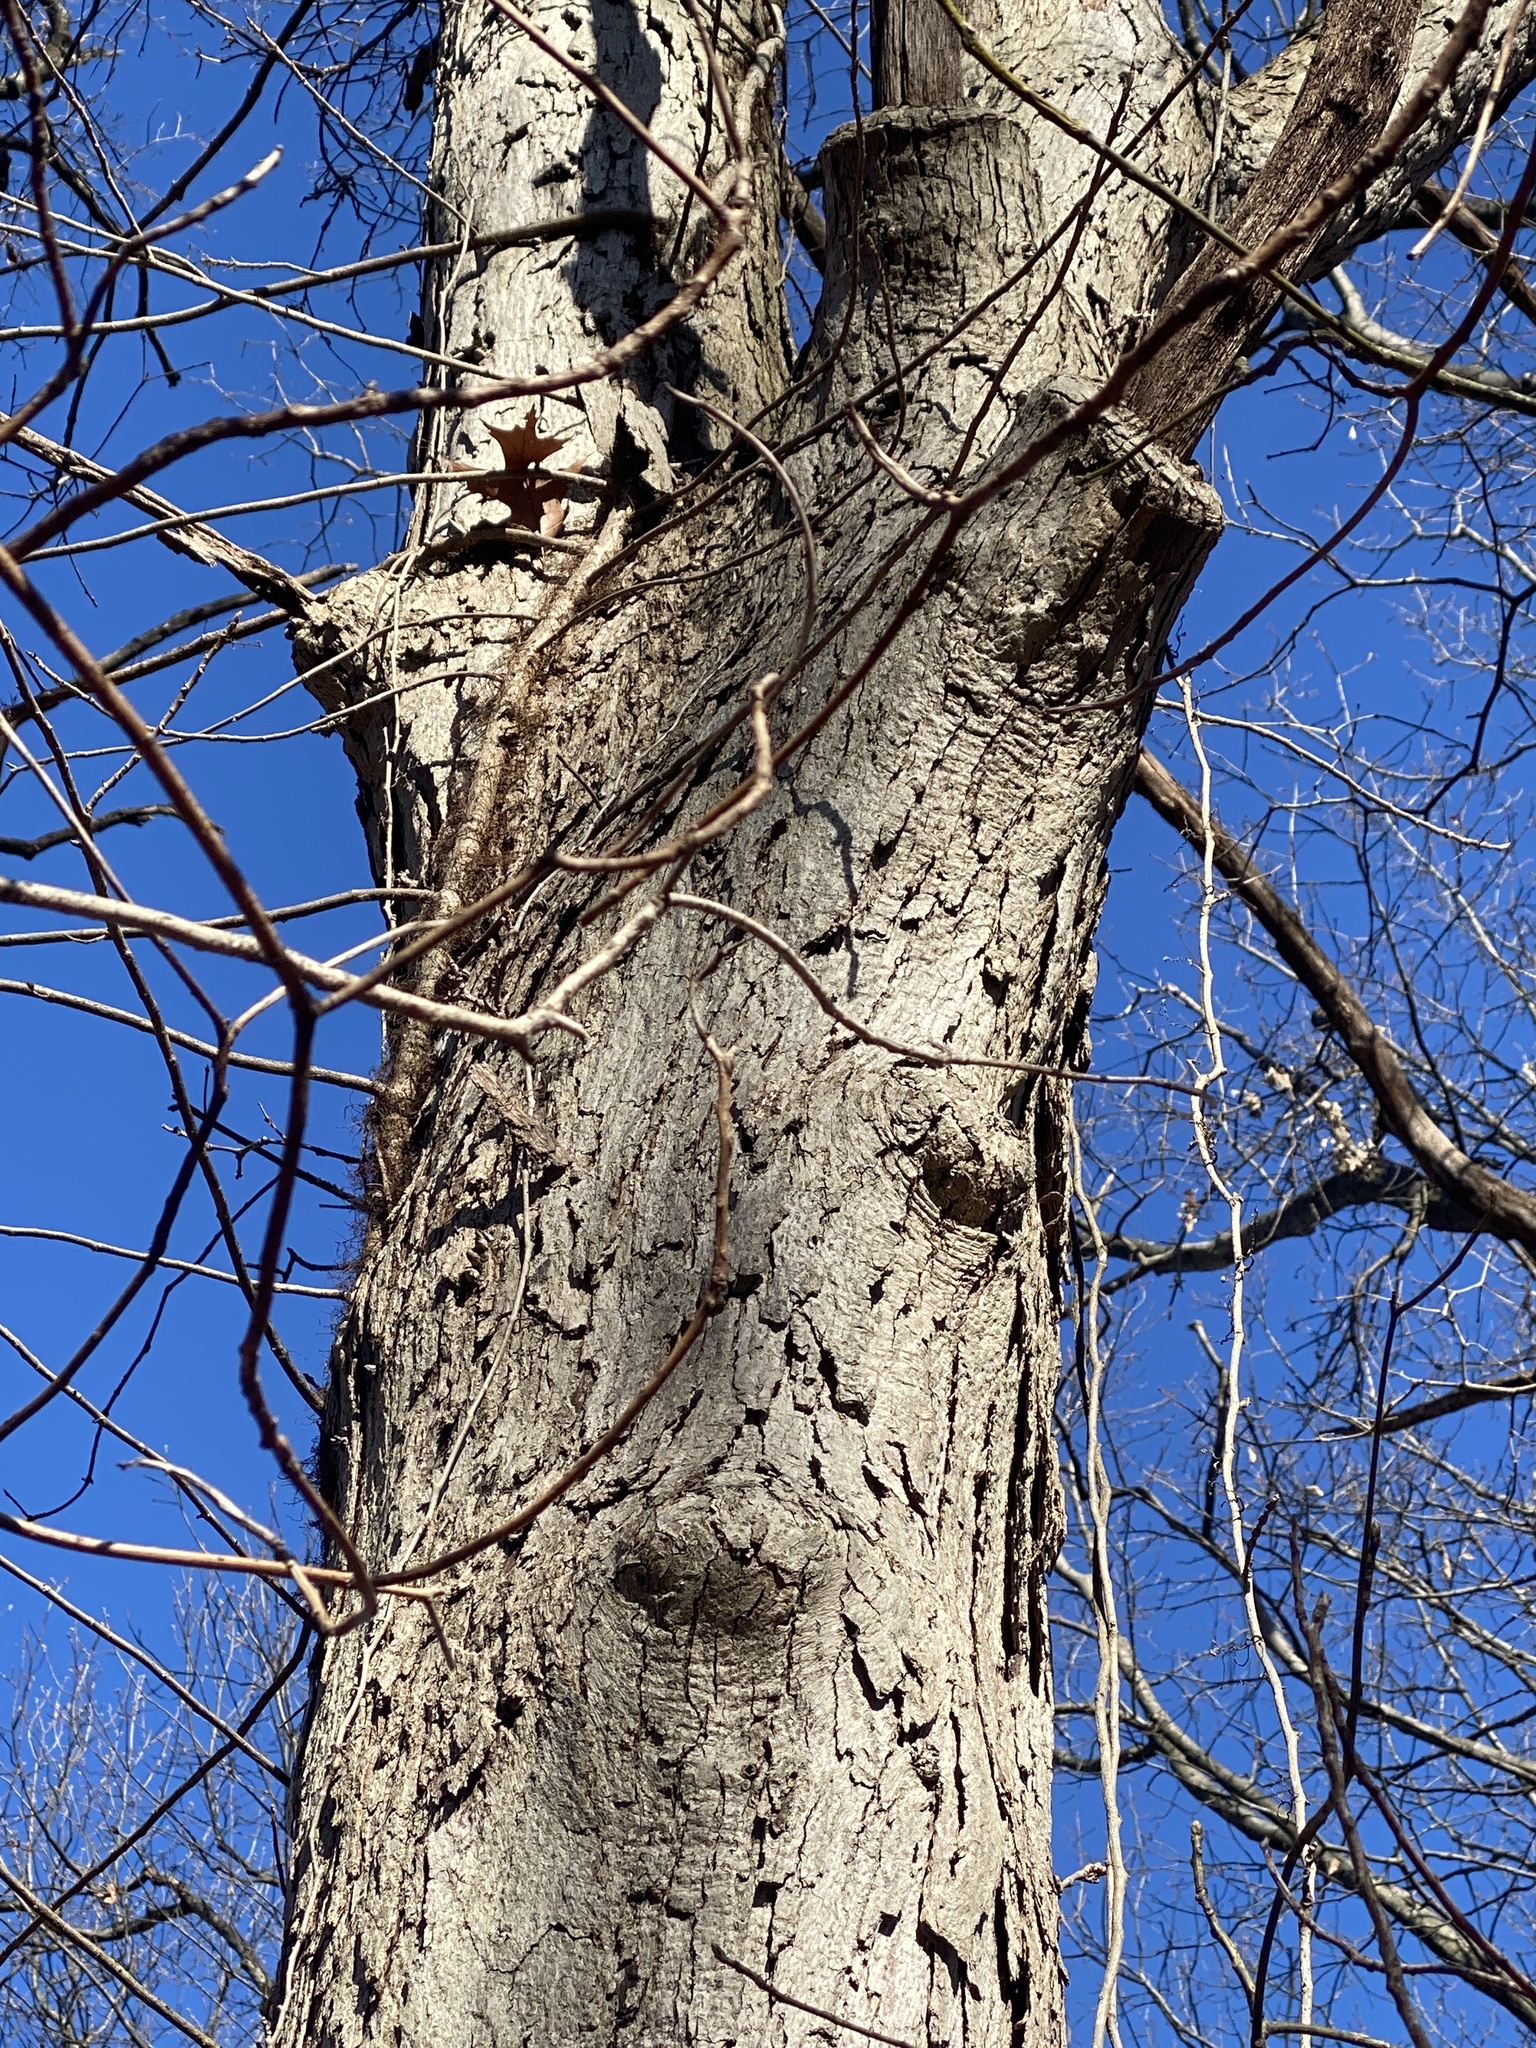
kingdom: Plantae
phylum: Tracheophyta
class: Magnoliopsida
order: Fagales
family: Fagaceae
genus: Quercus
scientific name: Quercus alba
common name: White oak
